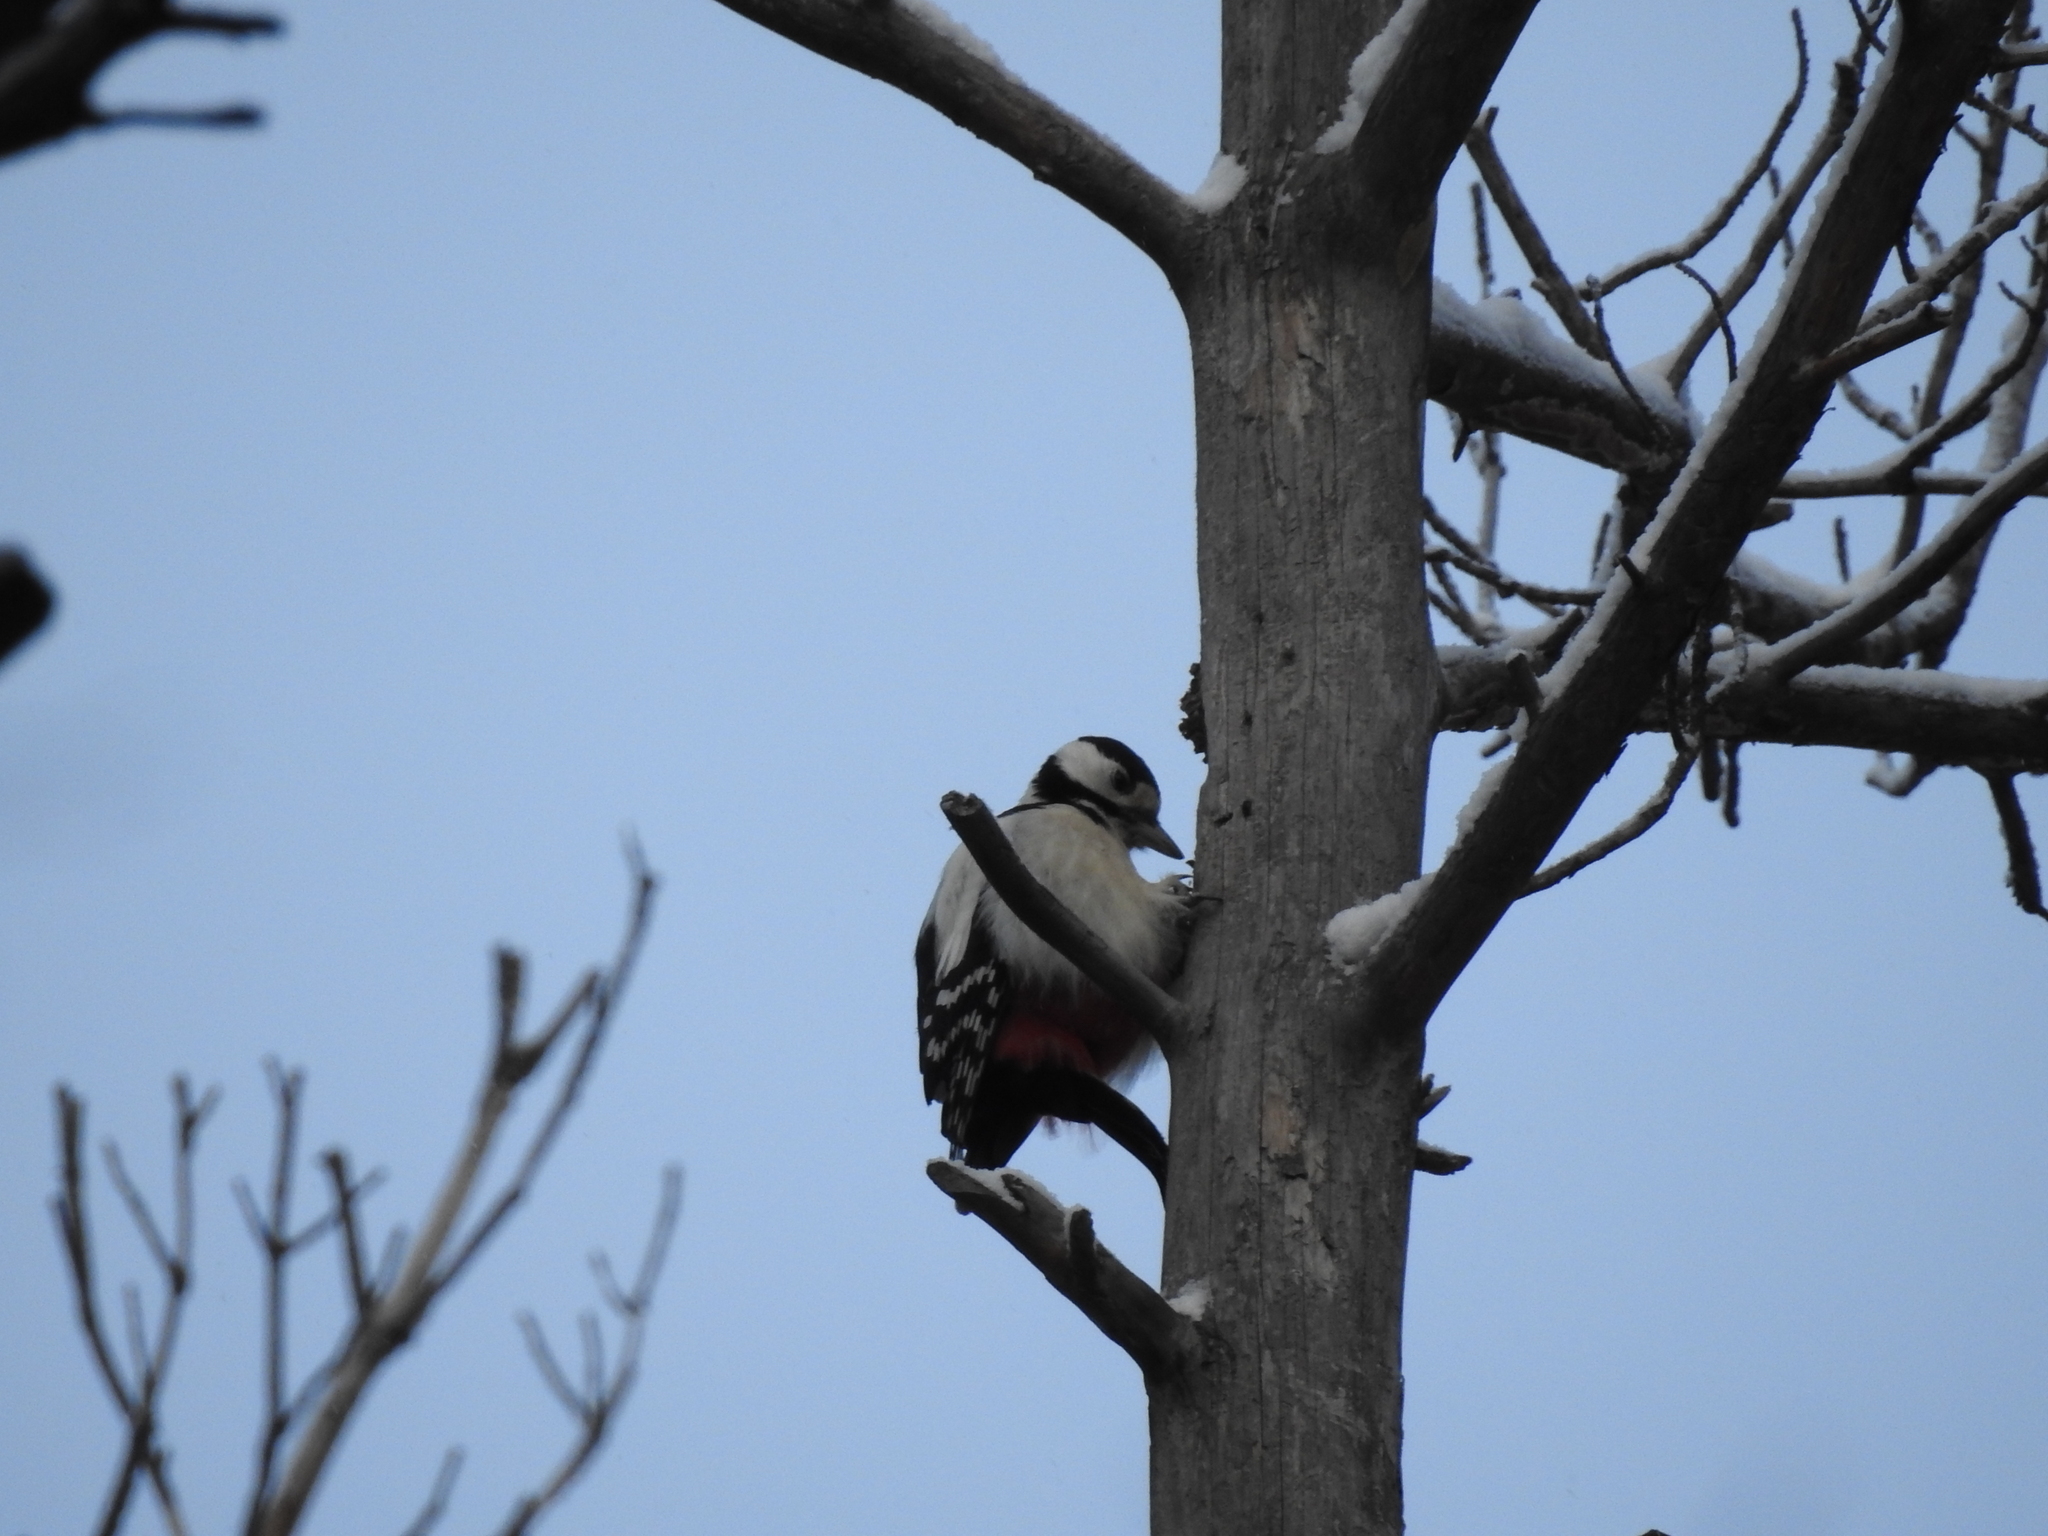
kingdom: Animalia
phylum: Chordata
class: Aves
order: Piciformes
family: Picidae
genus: Dendrocopos
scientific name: Dendrocopos major
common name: Great spotted woodpecker
